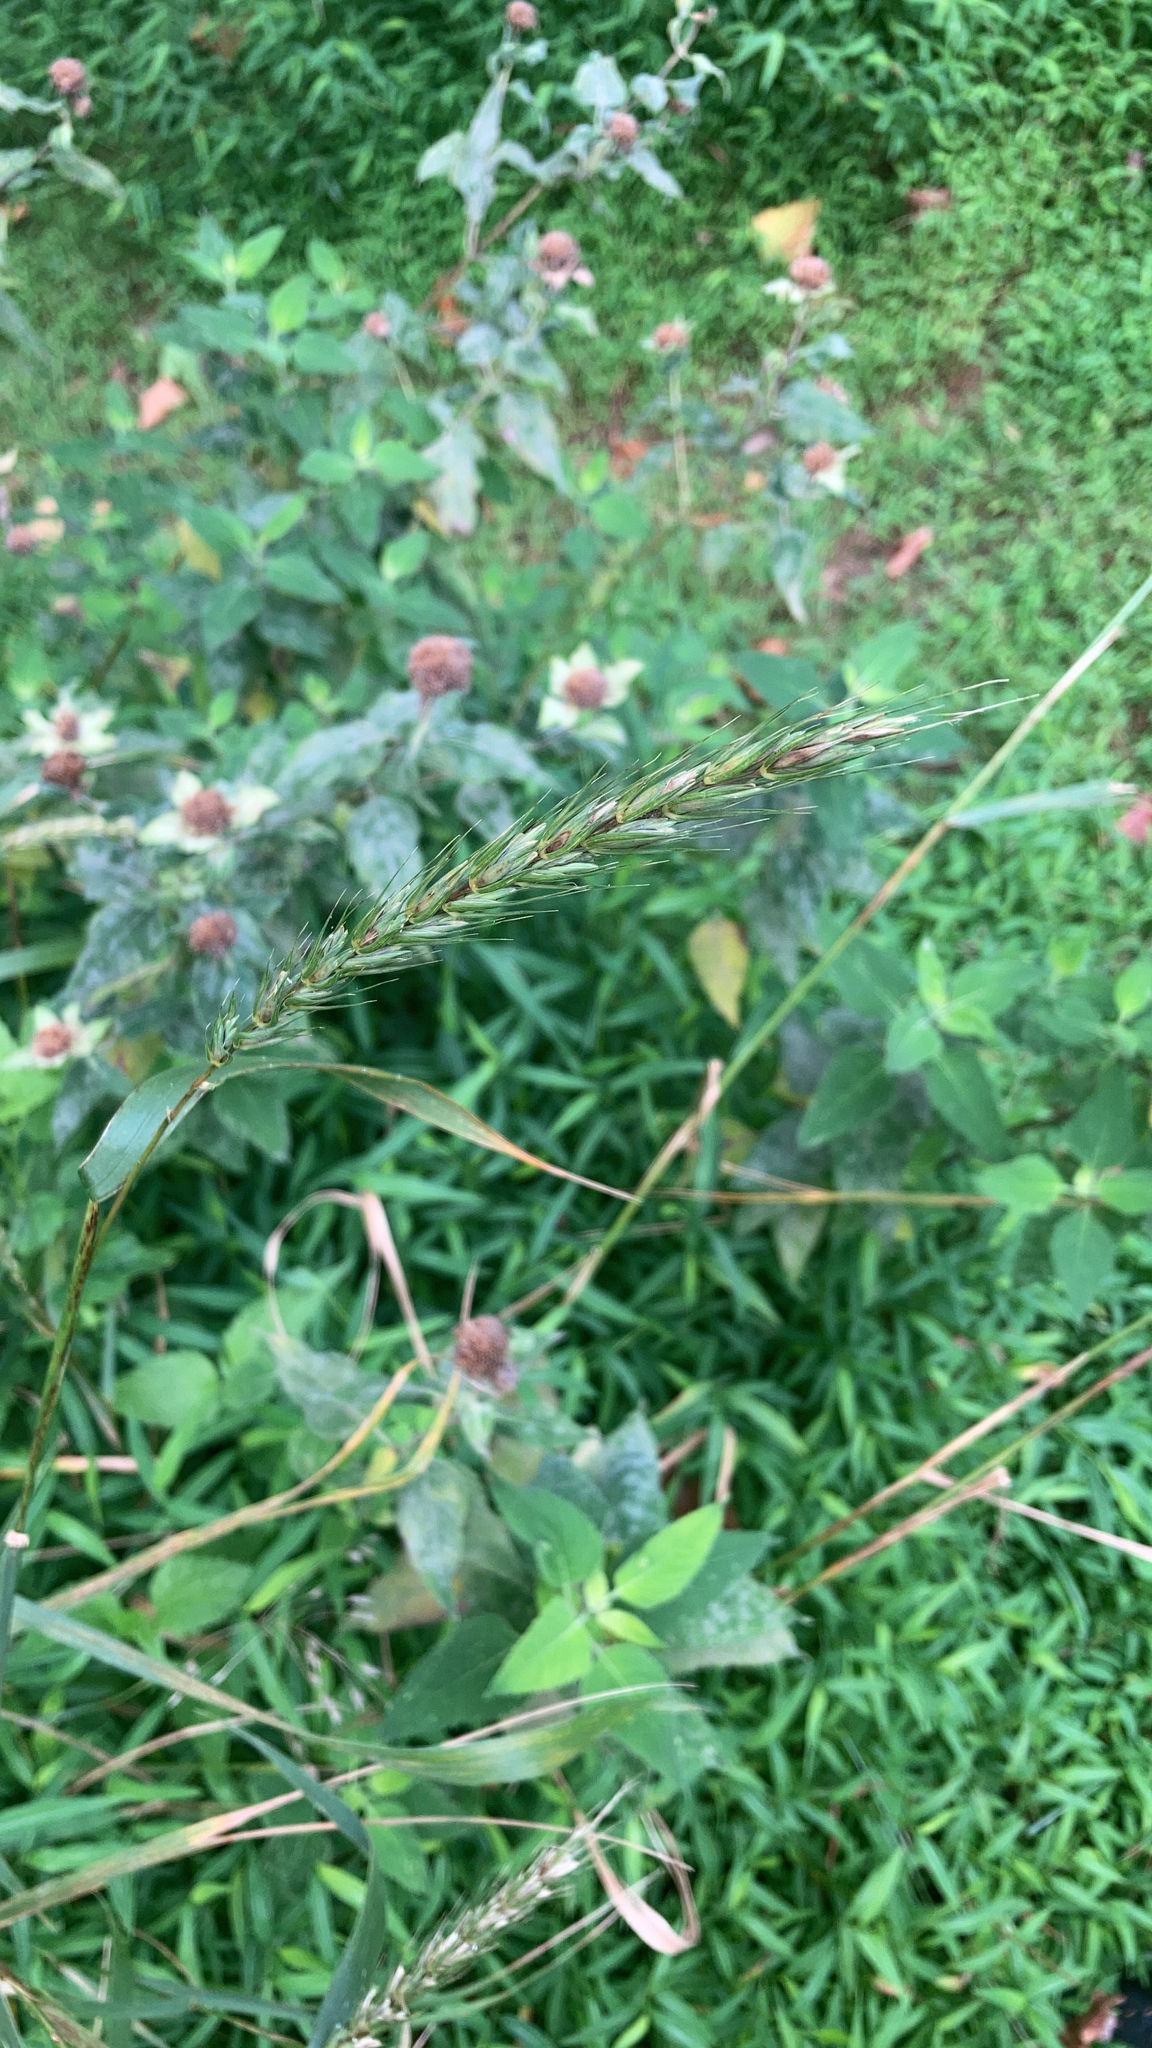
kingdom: Plantae
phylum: Tracheophyta
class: Liliopsida
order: Poales
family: Poaceae
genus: Elymus
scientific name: Elymus virginicus
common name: Common eastern wildrye
